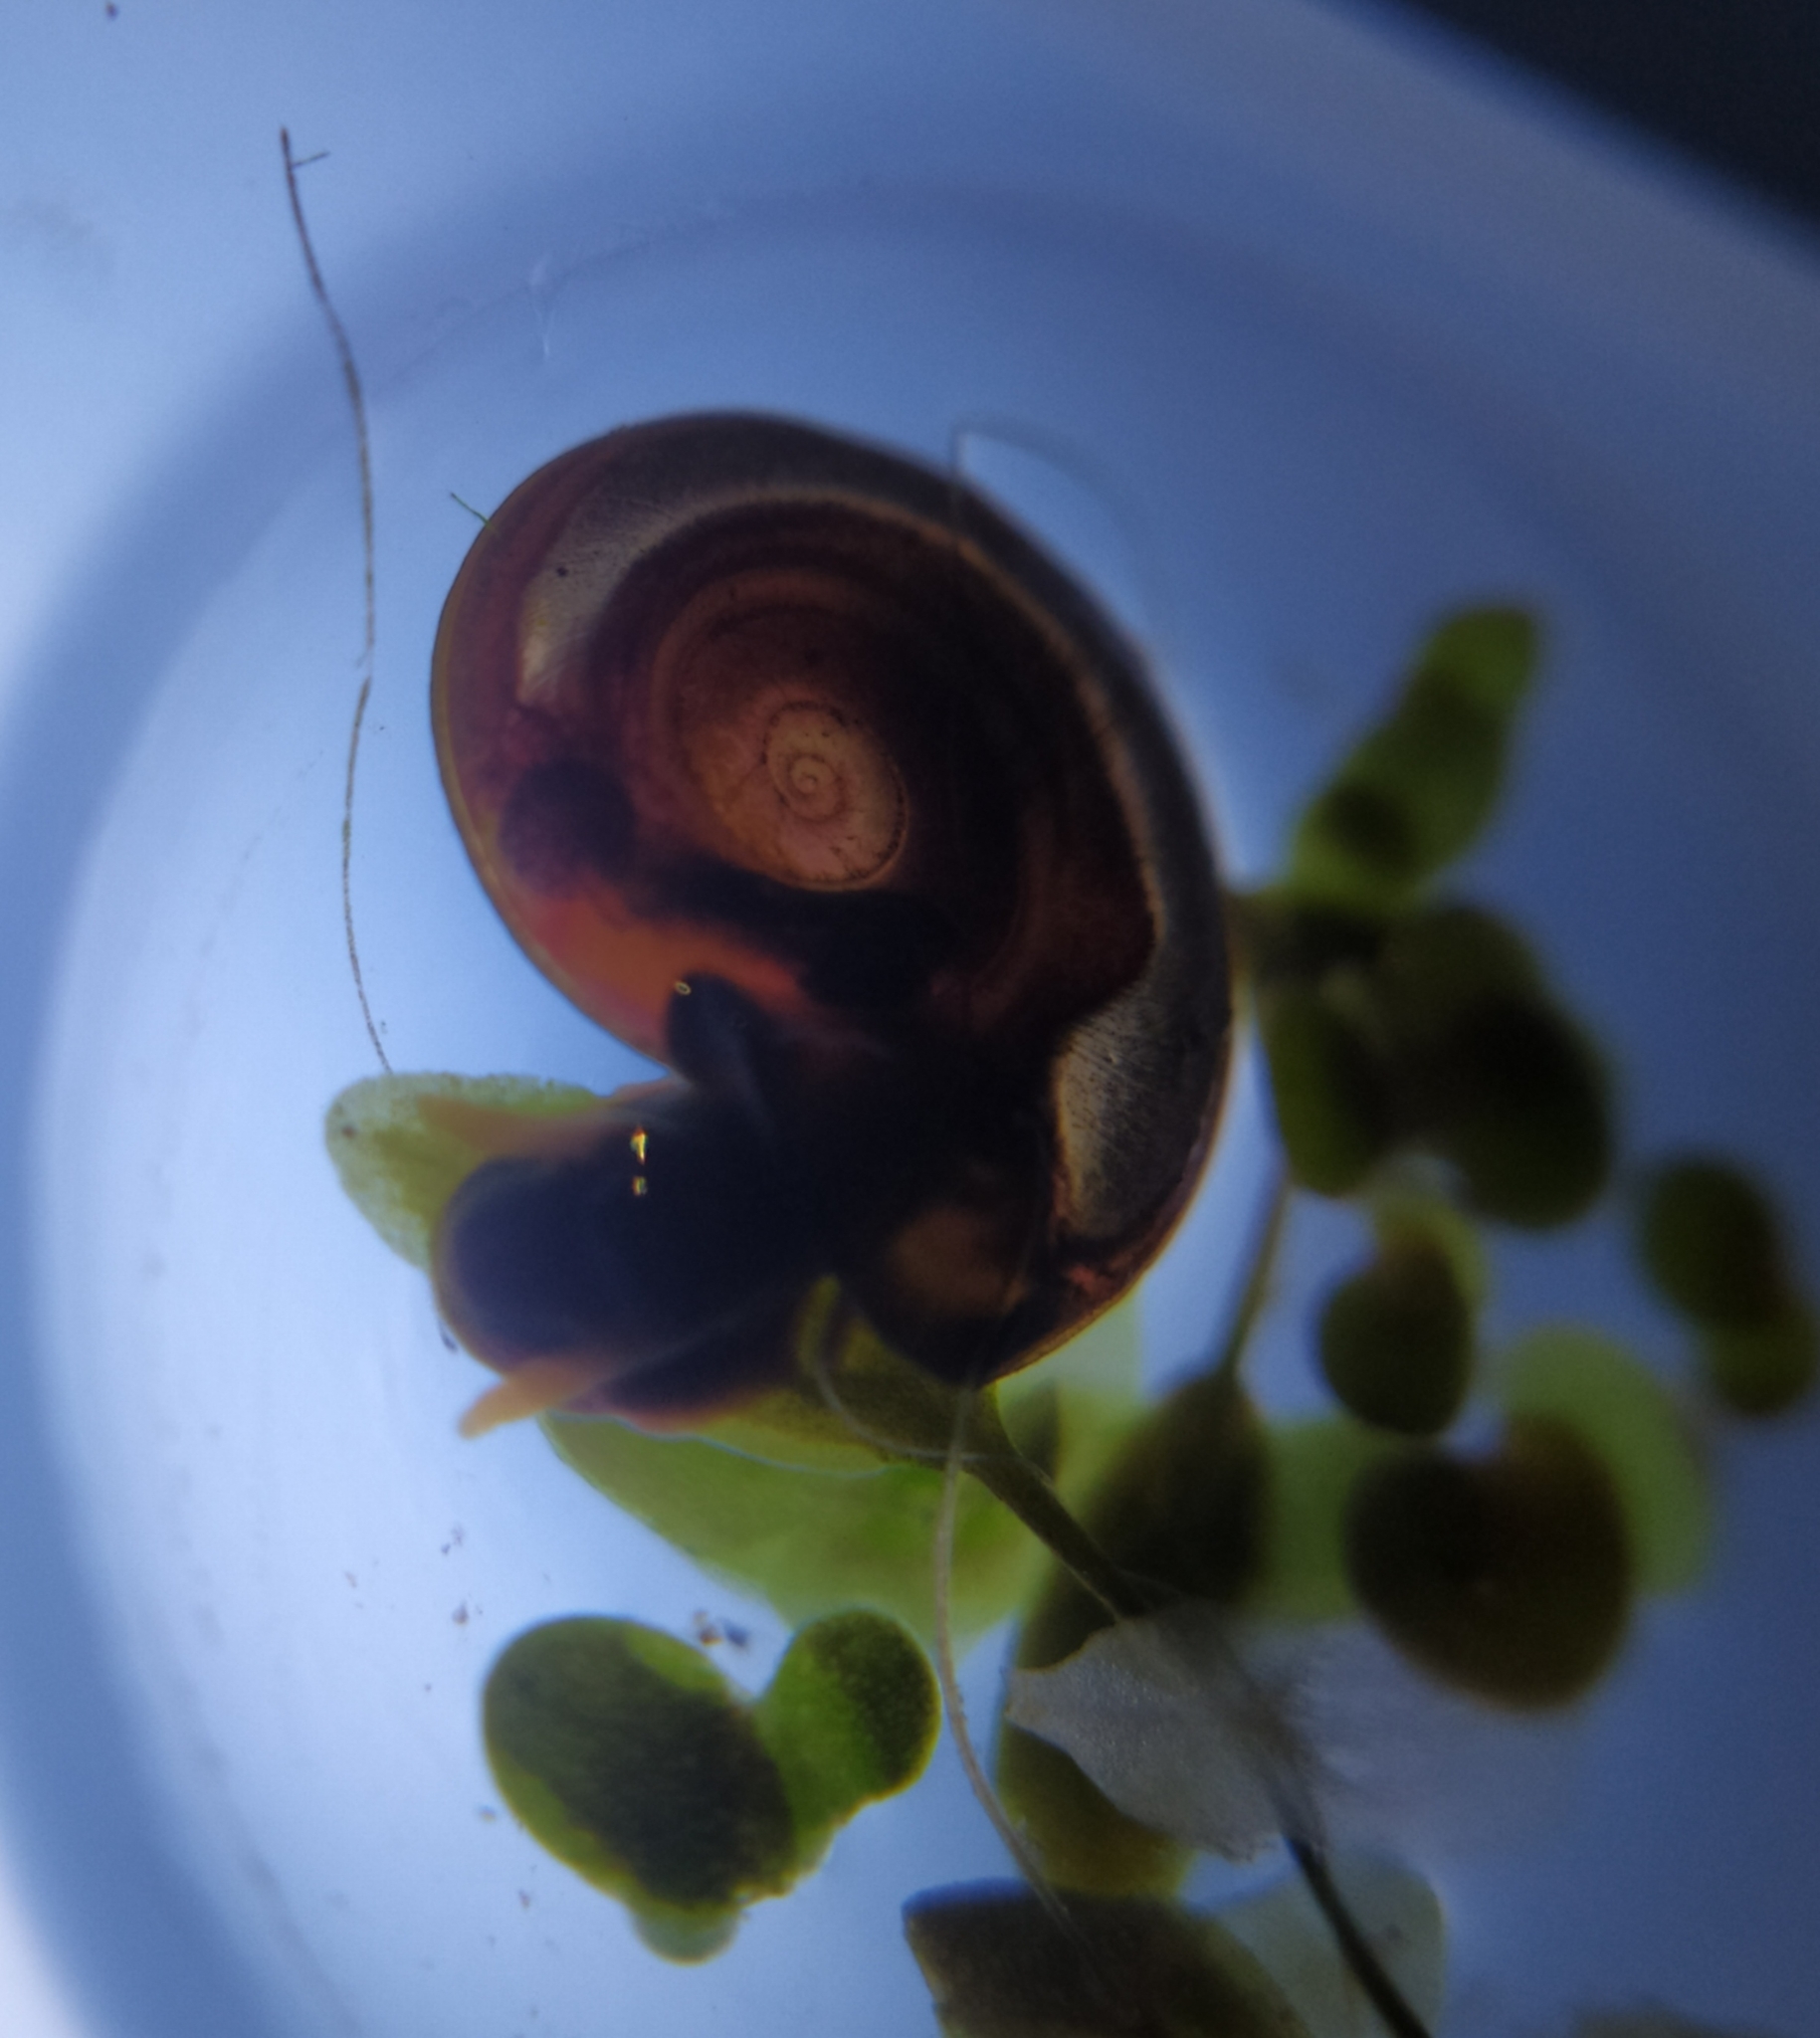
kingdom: Animalia
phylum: Mollusca
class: Gastropoda
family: Planorbidae
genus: Planorbis
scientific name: Planorbis planorbis
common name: Margined ramshorn
